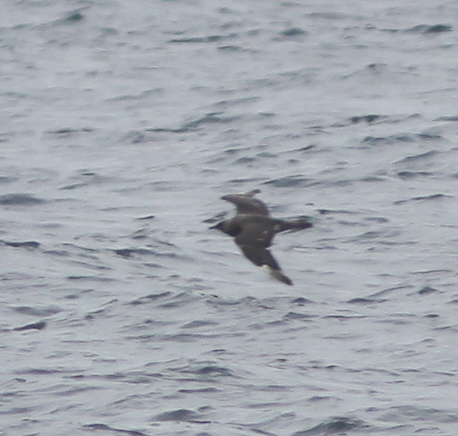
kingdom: Animalia
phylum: Chordata
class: Aves
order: Charadriiformes
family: Stercorariidae
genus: Stercorarius
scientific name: Stercorarius pomarinus
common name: Pomarine jaeger
